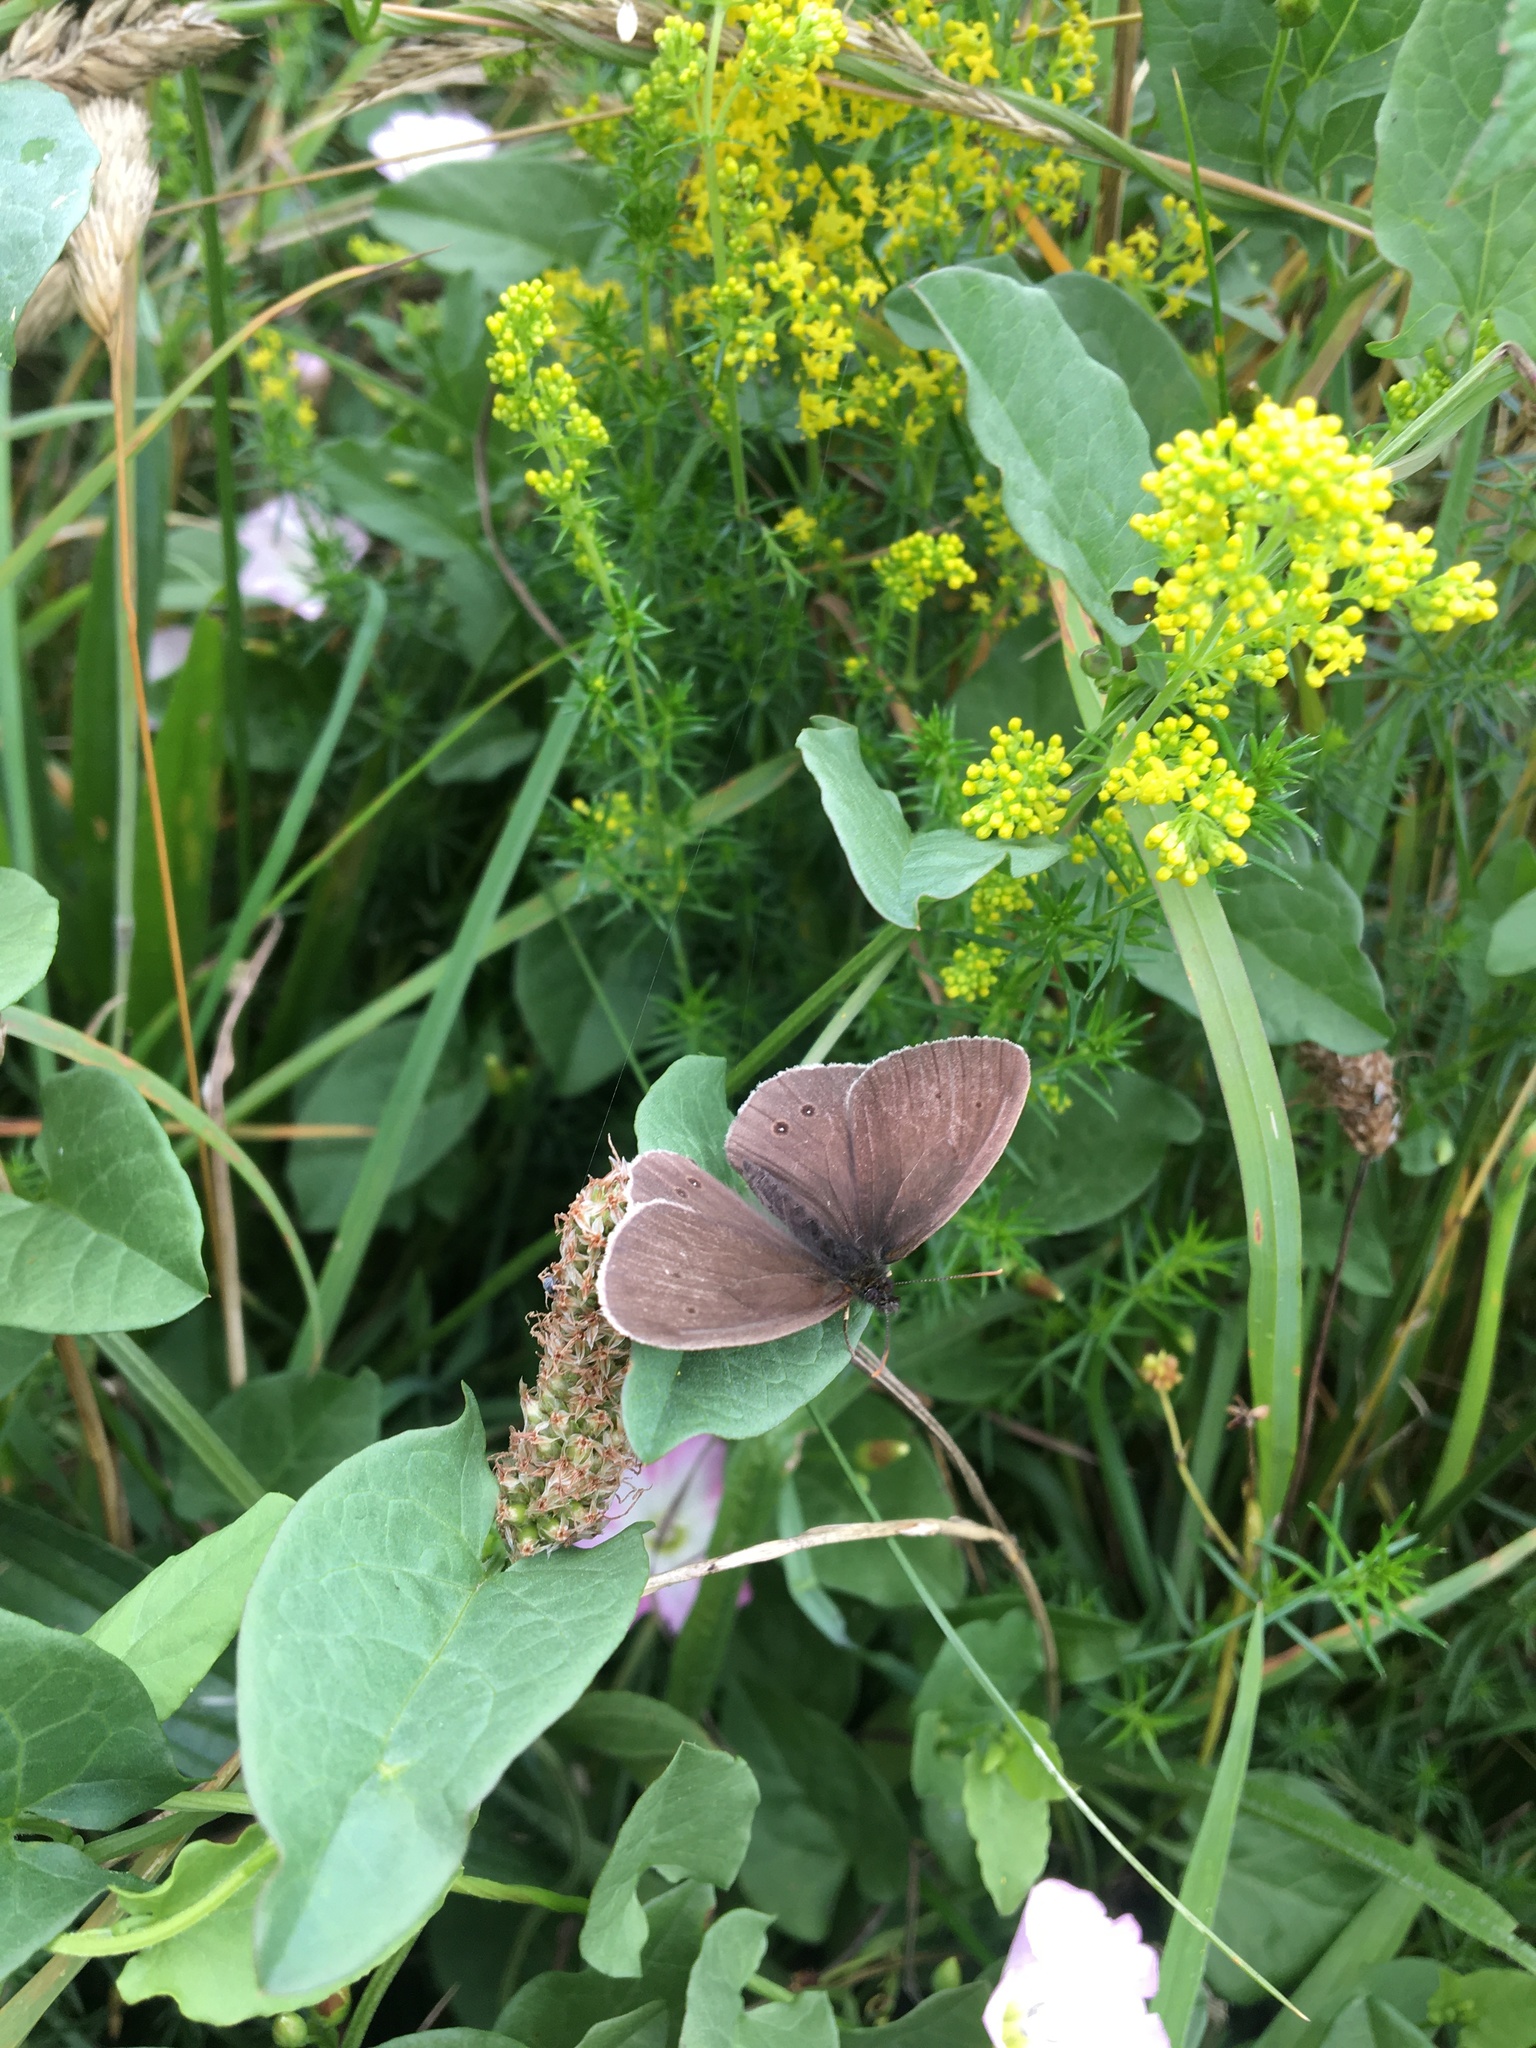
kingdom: Animalia
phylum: Arthropoda
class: Insecta
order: Lepidoptera
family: Nymphalidae
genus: Aphantopus
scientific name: Aphantopus hyperantus
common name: Ringlet
